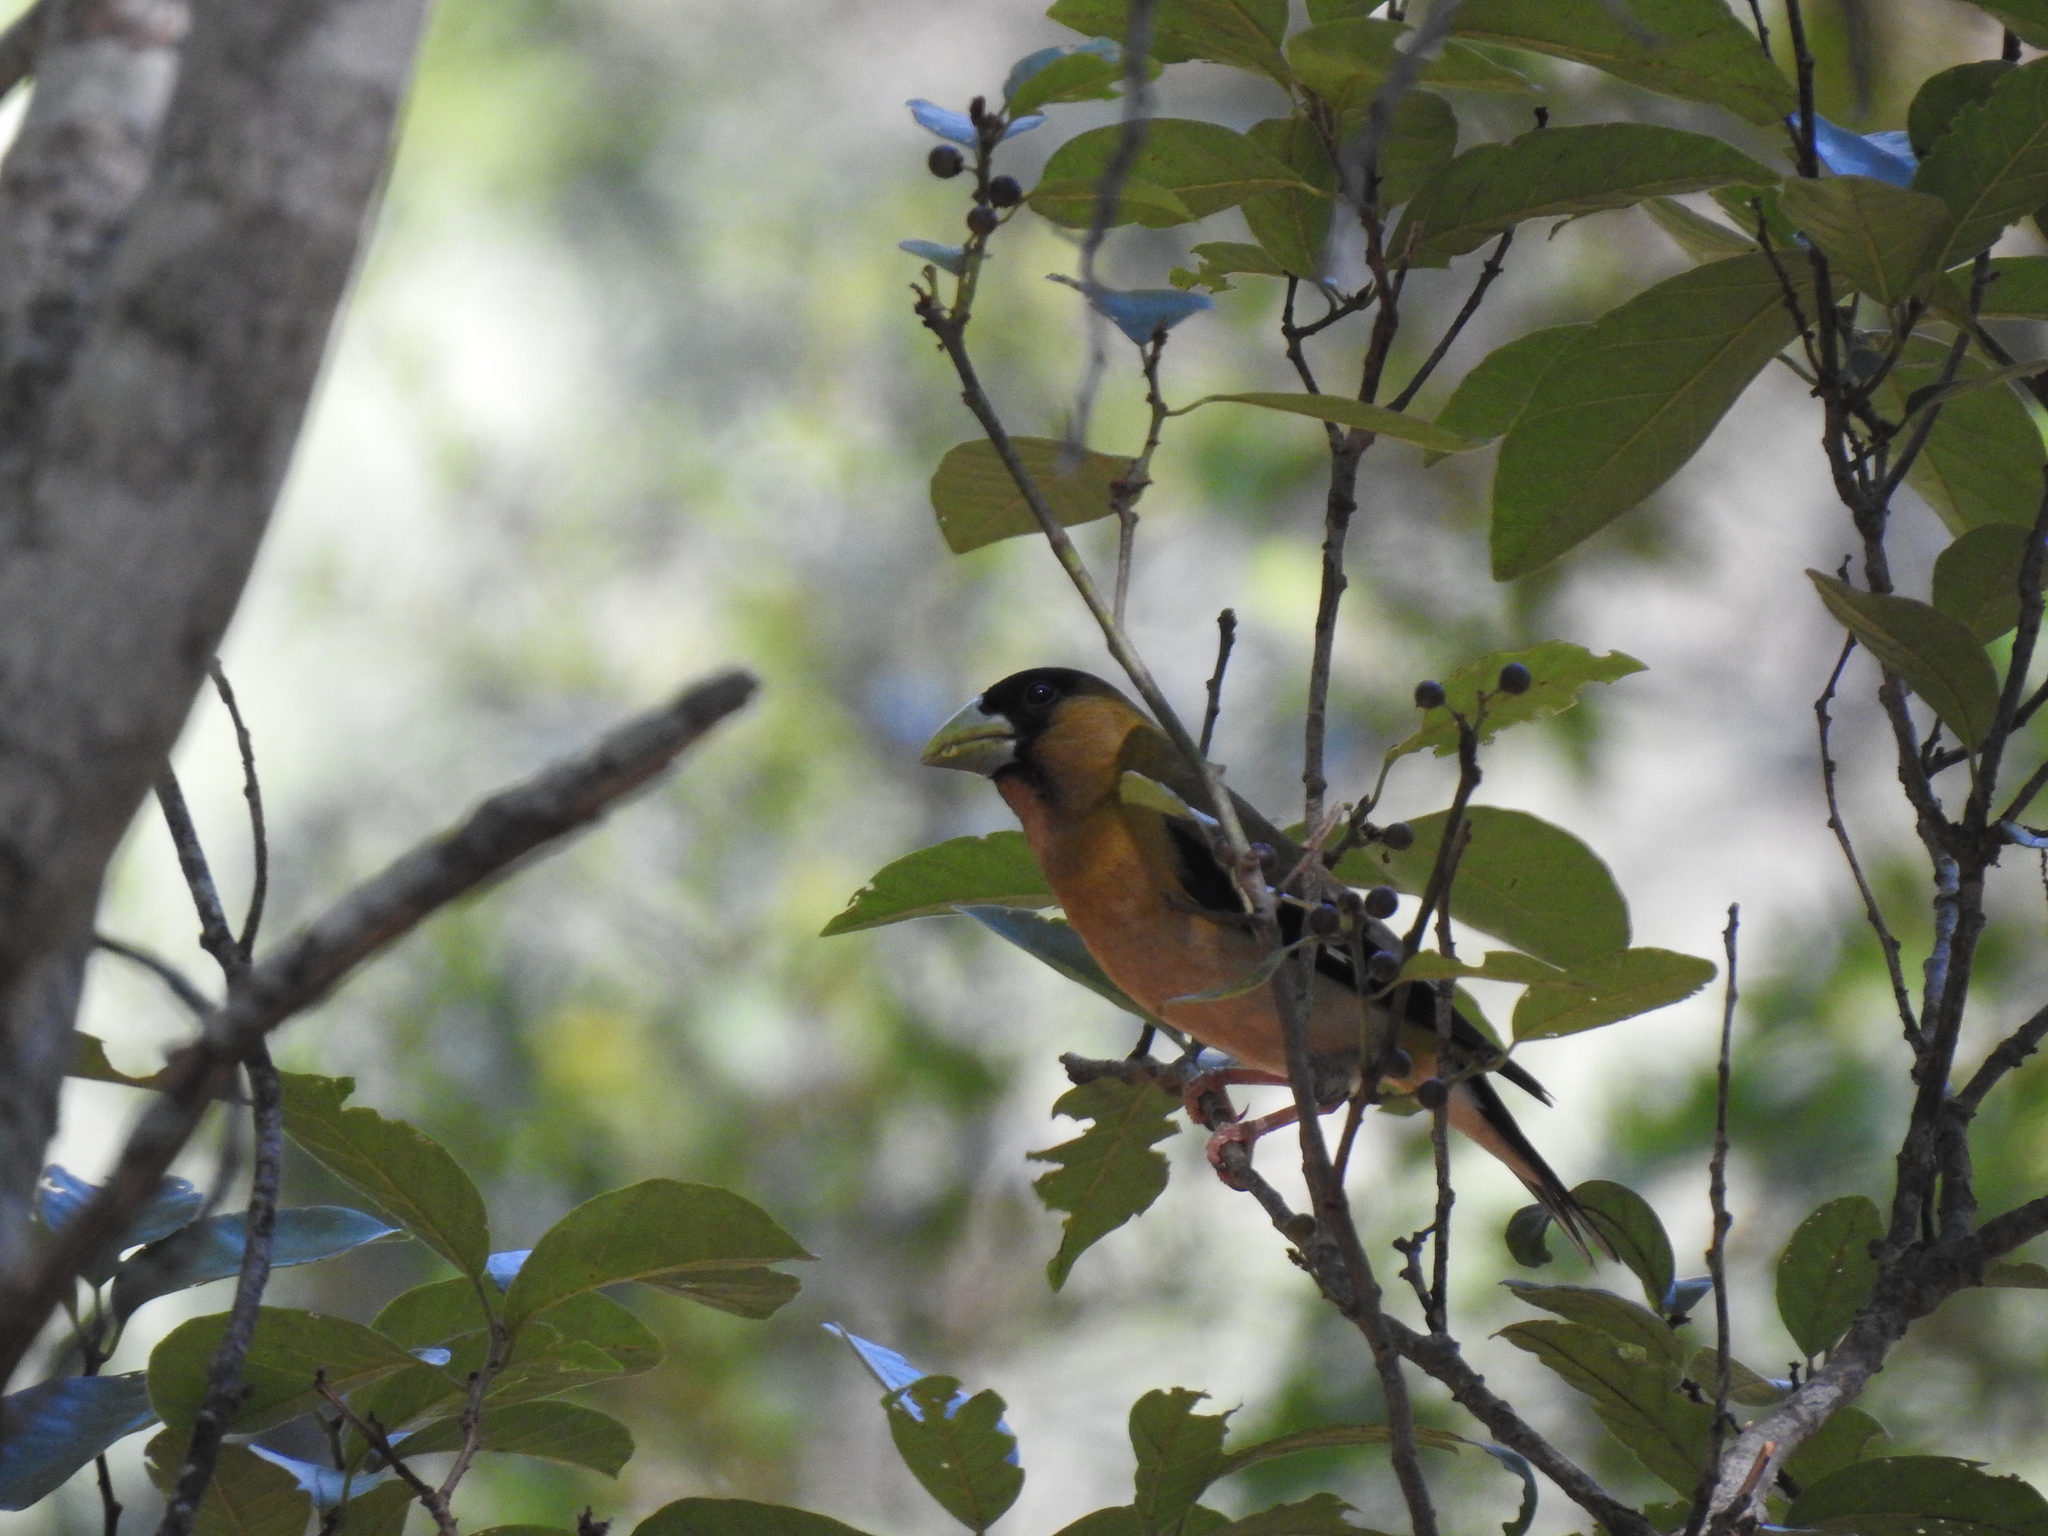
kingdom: Animalia
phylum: Chordata
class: Aves
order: Passeriformes
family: Fringillidae
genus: Hesperiphona
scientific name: Hesperiphona abeillei
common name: Hooded grosbeak
